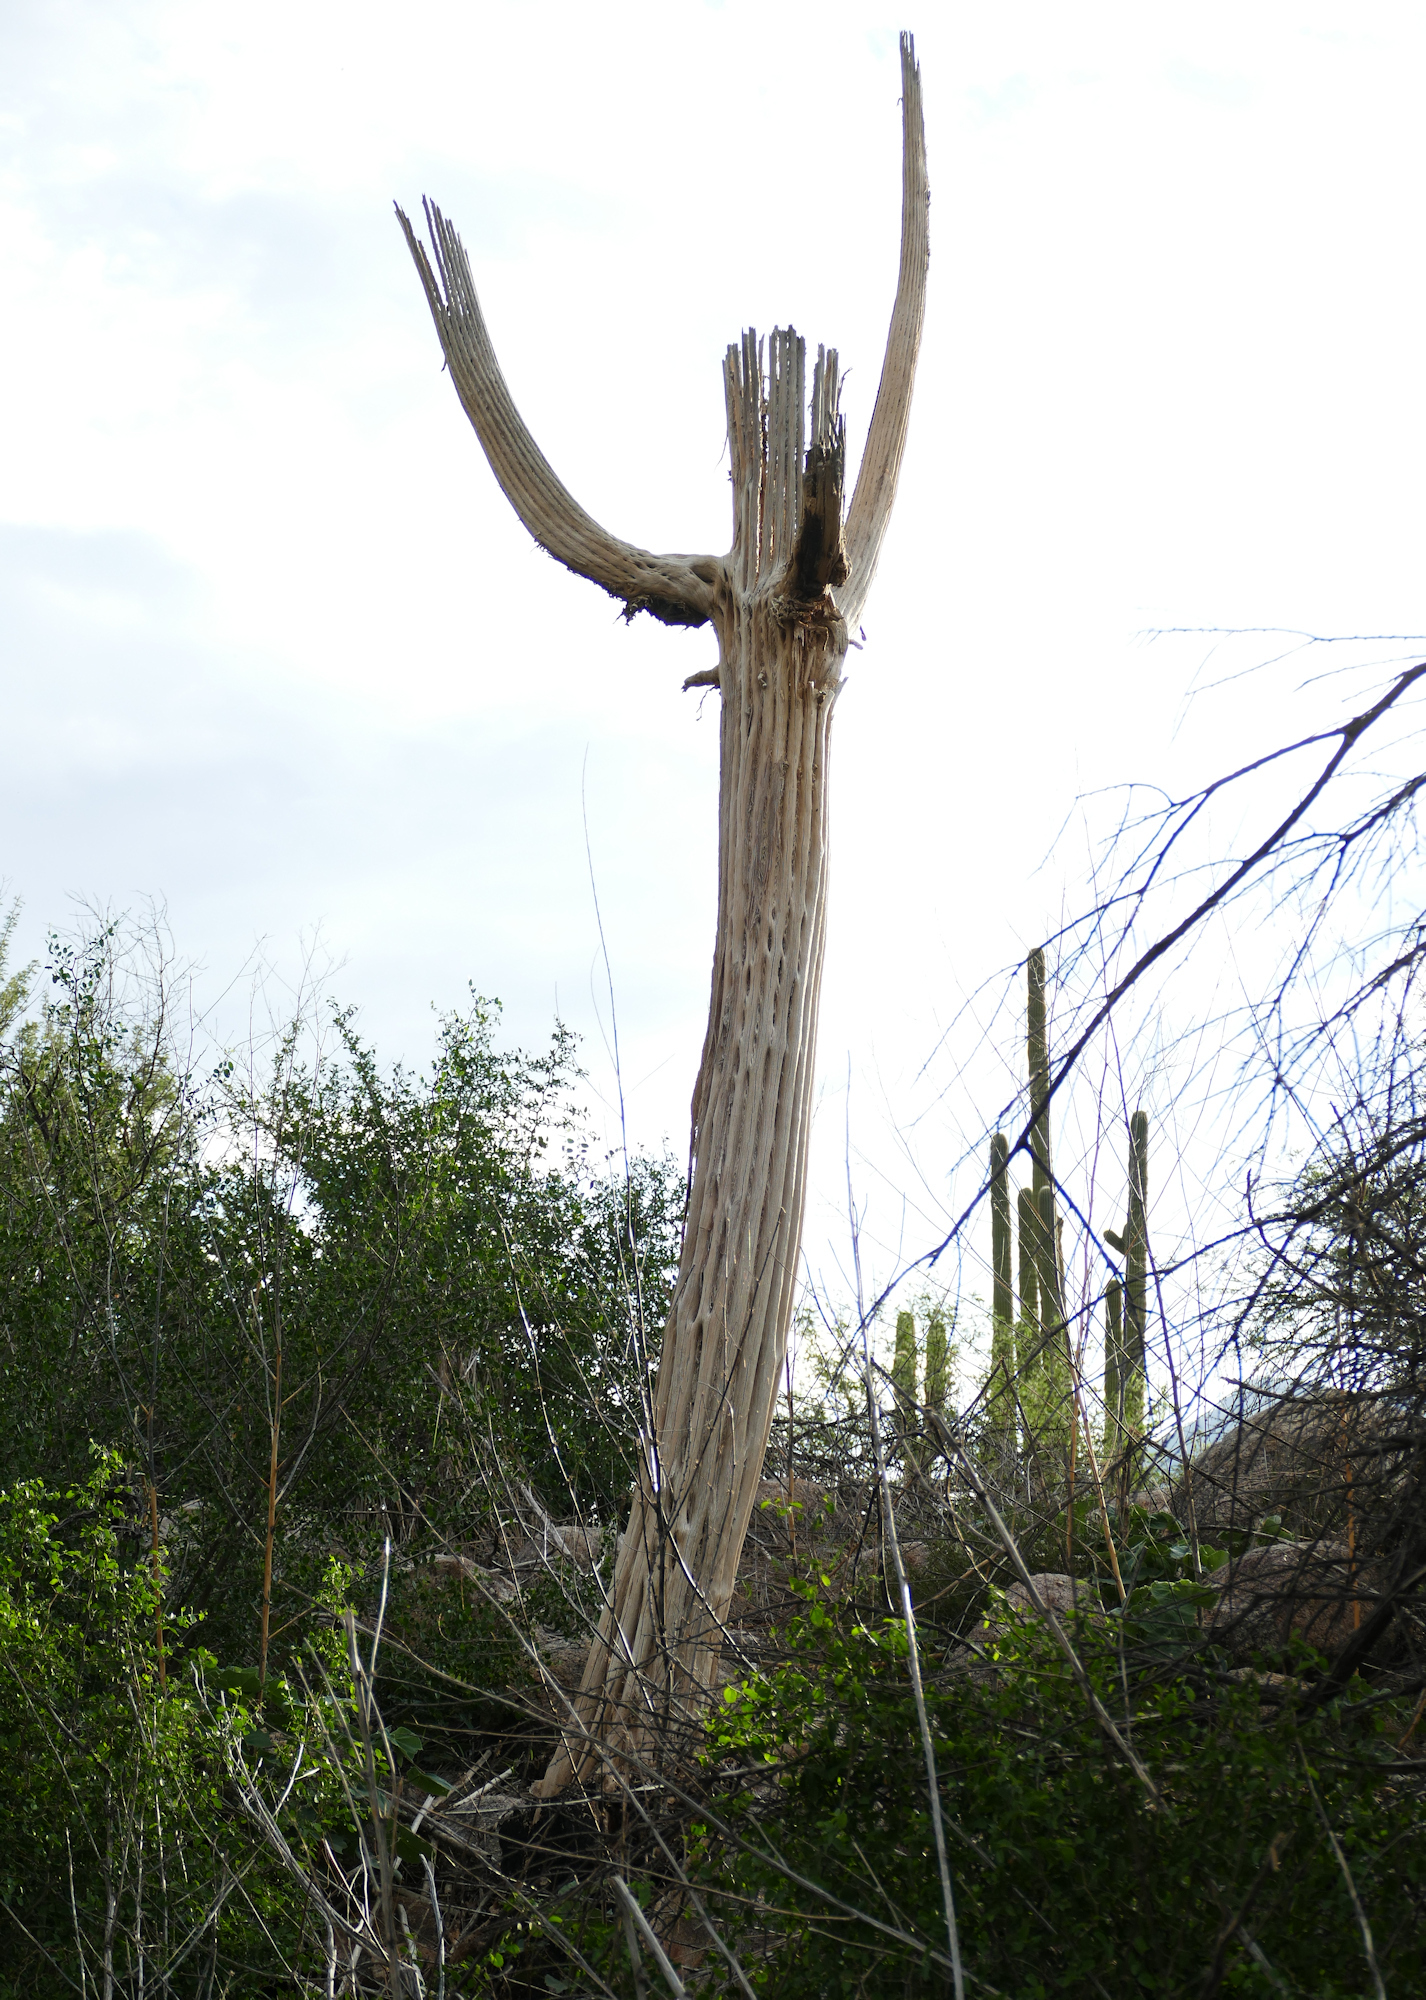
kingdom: Plantae
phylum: Tracheophyta
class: Magnoliopsida
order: Caryophyllales
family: Cactaceae
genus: Carnegiea
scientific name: Carnegiea gigantea
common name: Saguaro
